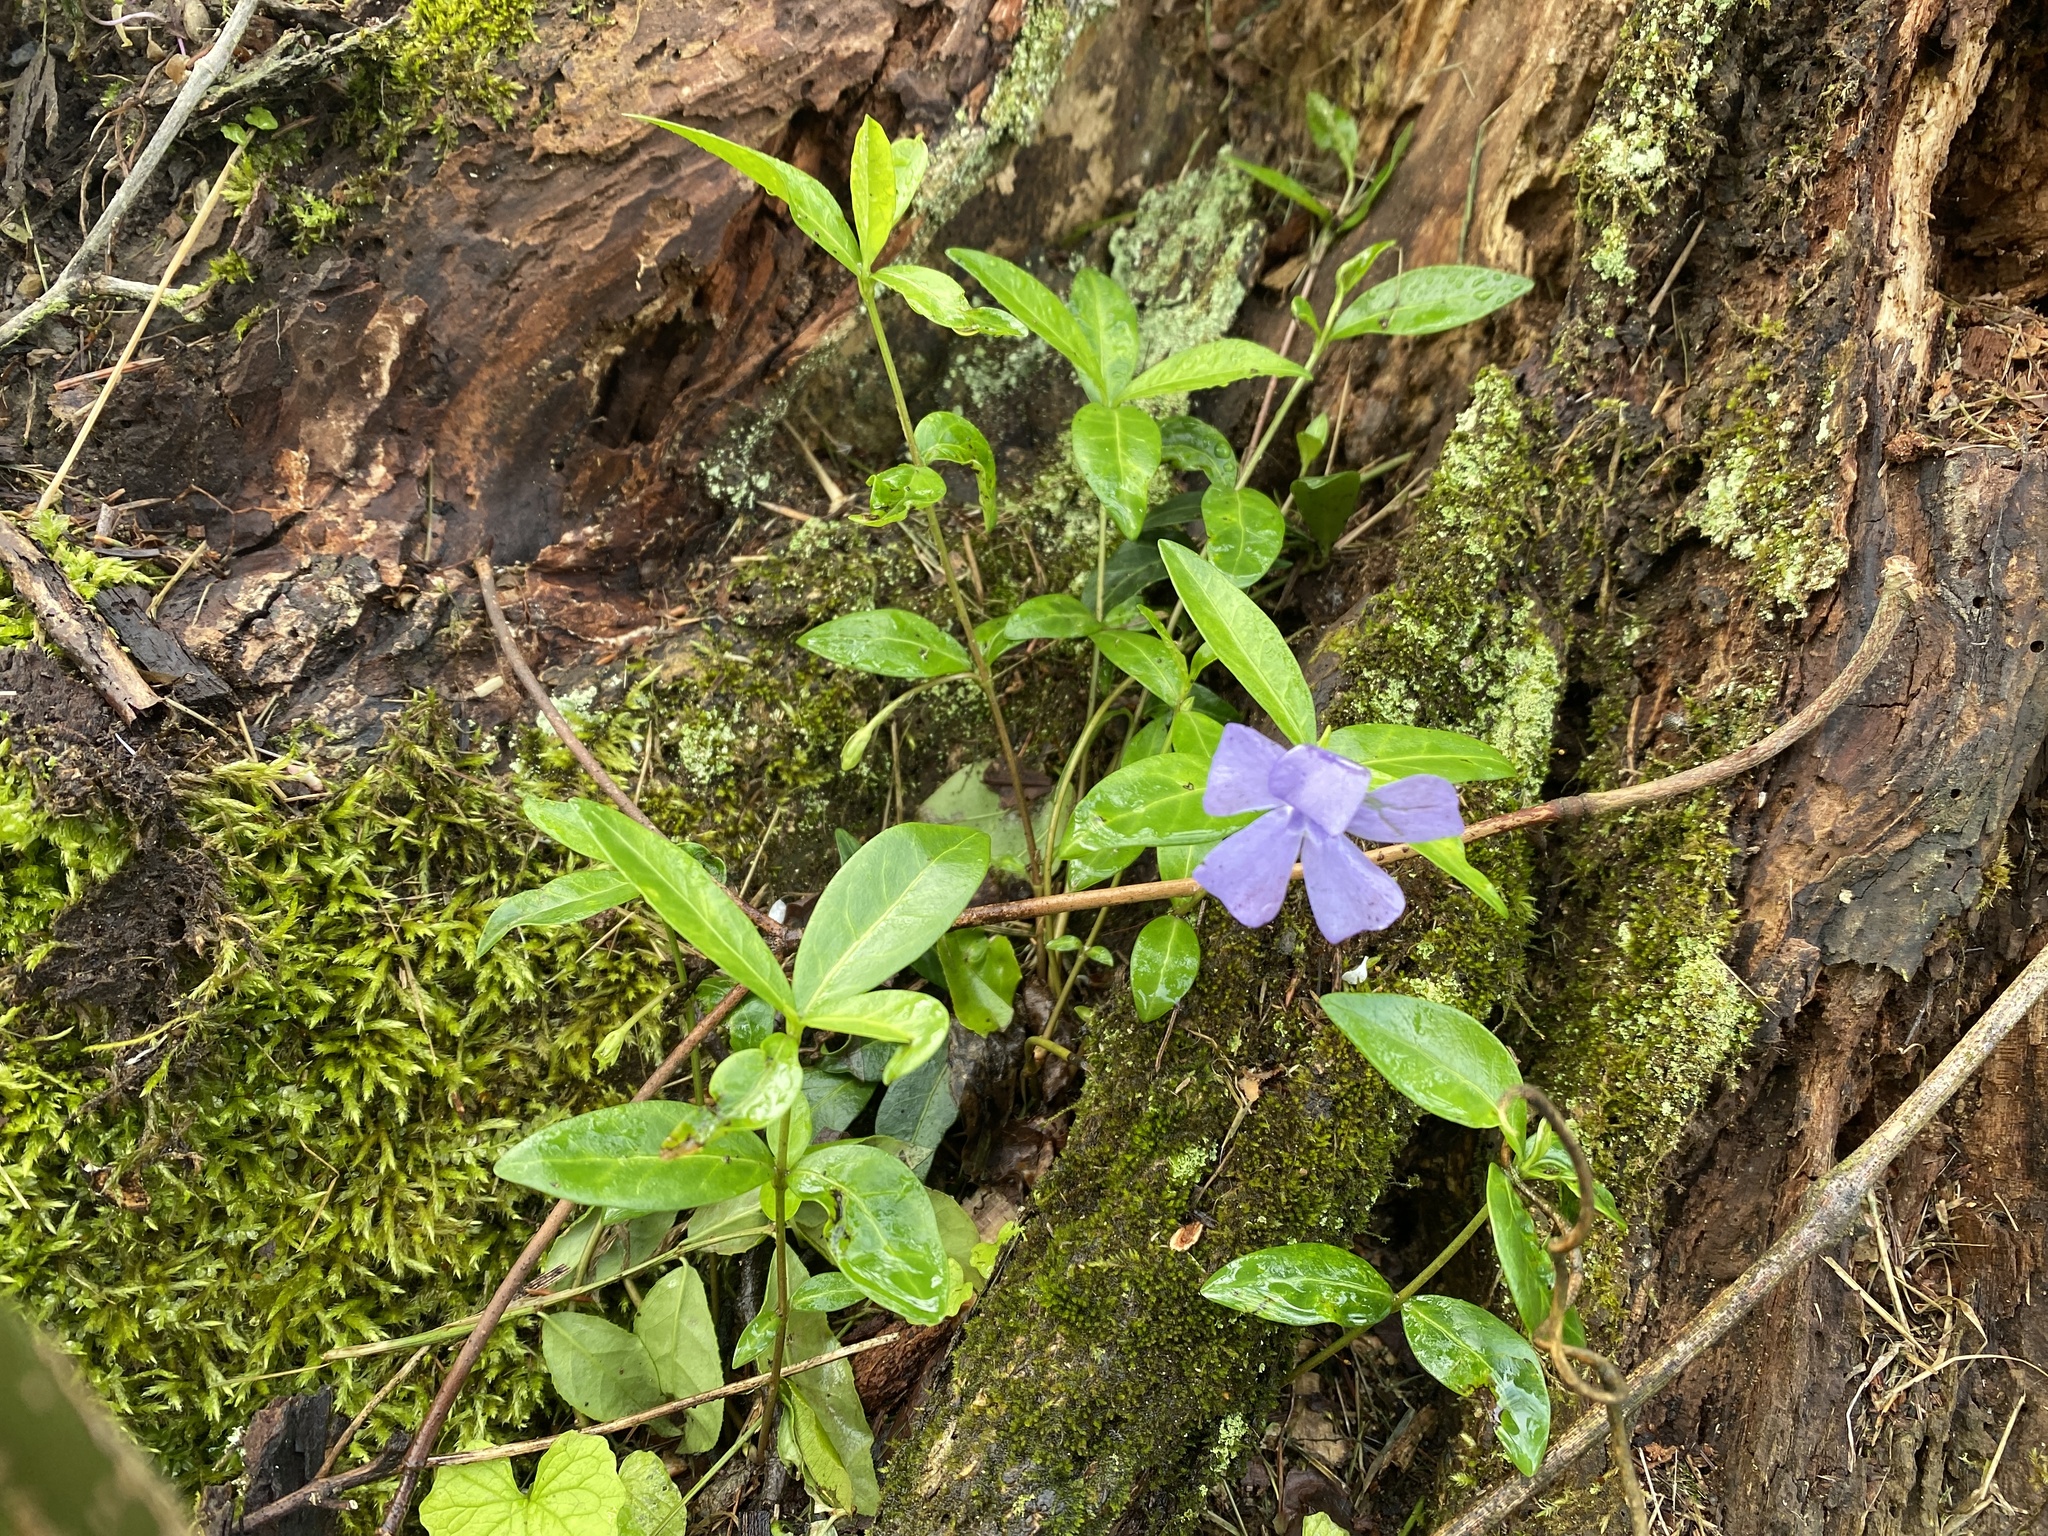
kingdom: Plantae
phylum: Tracheophyta
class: Magnoliopsida
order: Gentianales
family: Apocynaceae
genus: Vinca
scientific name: Vinca minor
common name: Lesser periwinkle
